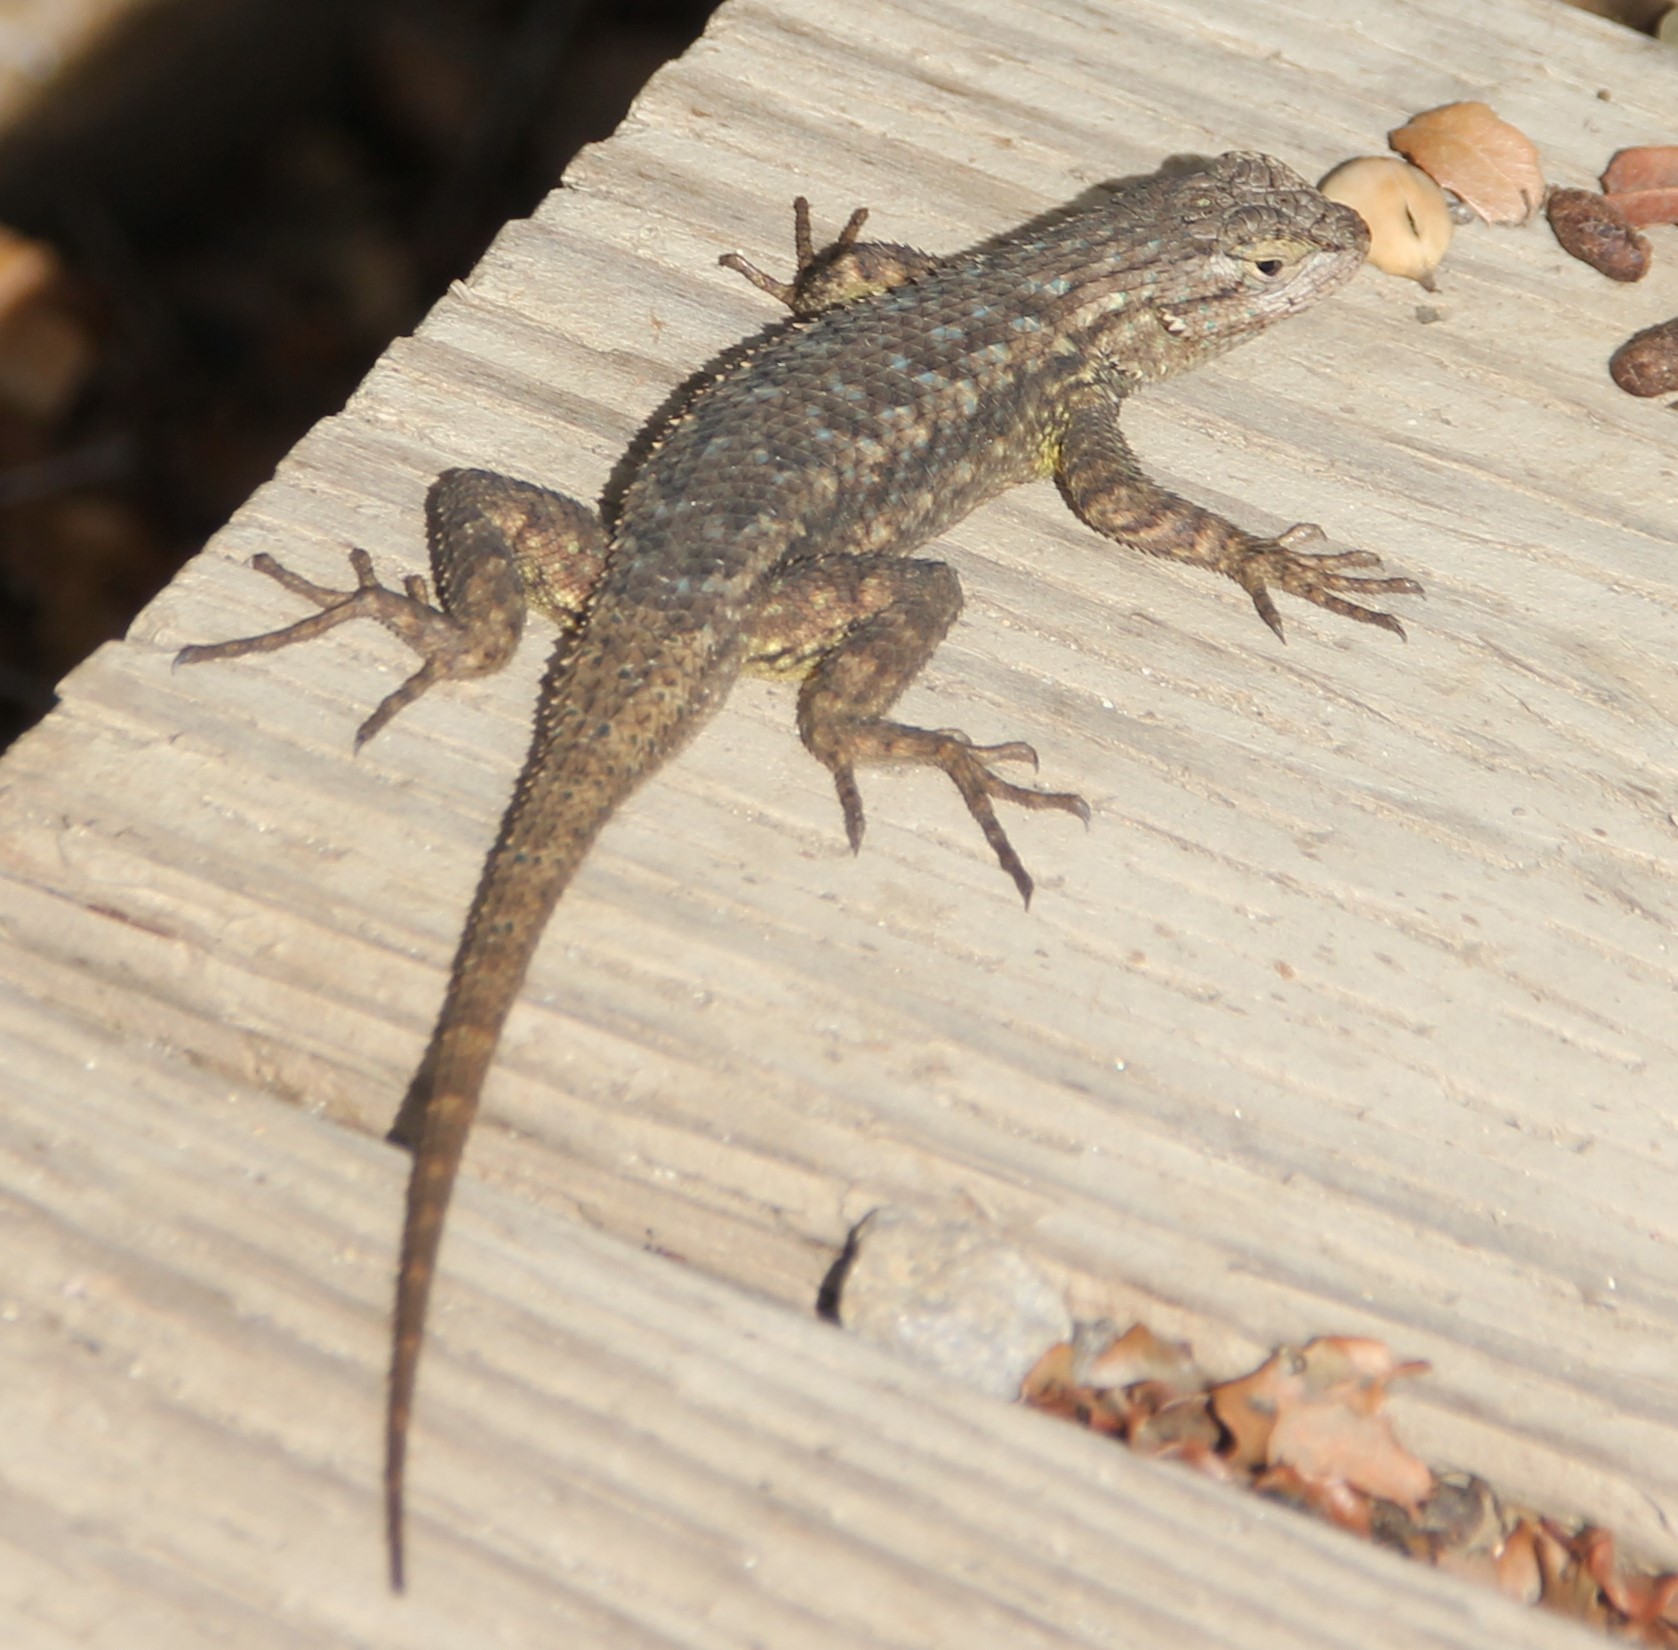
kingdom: Animalia
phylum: Chordata
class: Squamata
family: Phrynosomatidae
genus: Sceloporus
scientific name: Sceloporus occidentalis
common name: Western fence lizard
